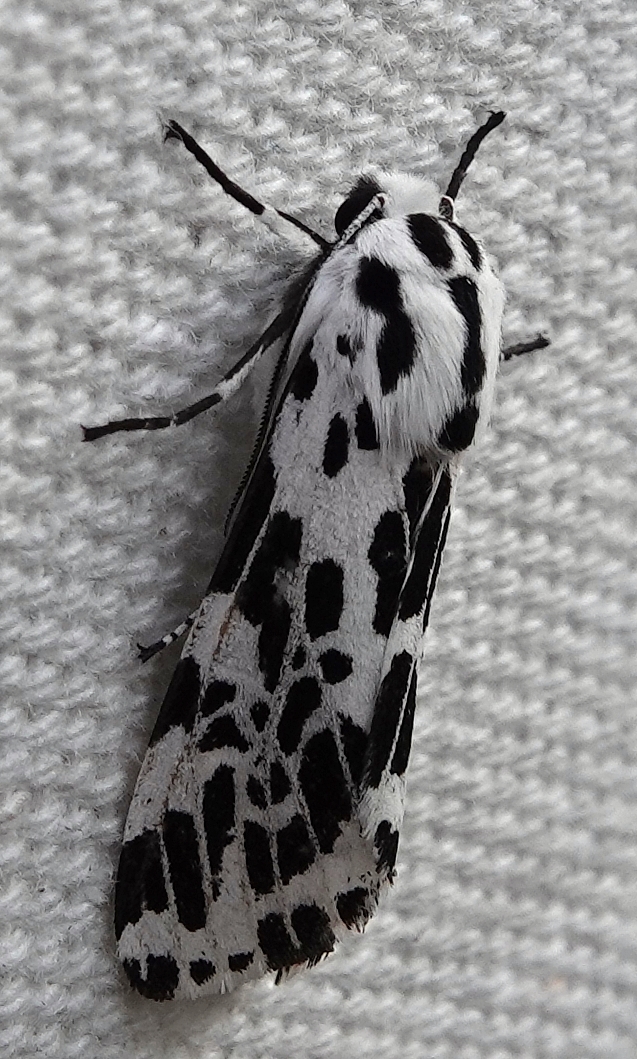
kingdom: Animalia
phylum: Arthropoda
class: Insecta
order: Lepidoptera
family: Erebidae
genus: Hypercompe
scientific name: Hypercompe permaculata
